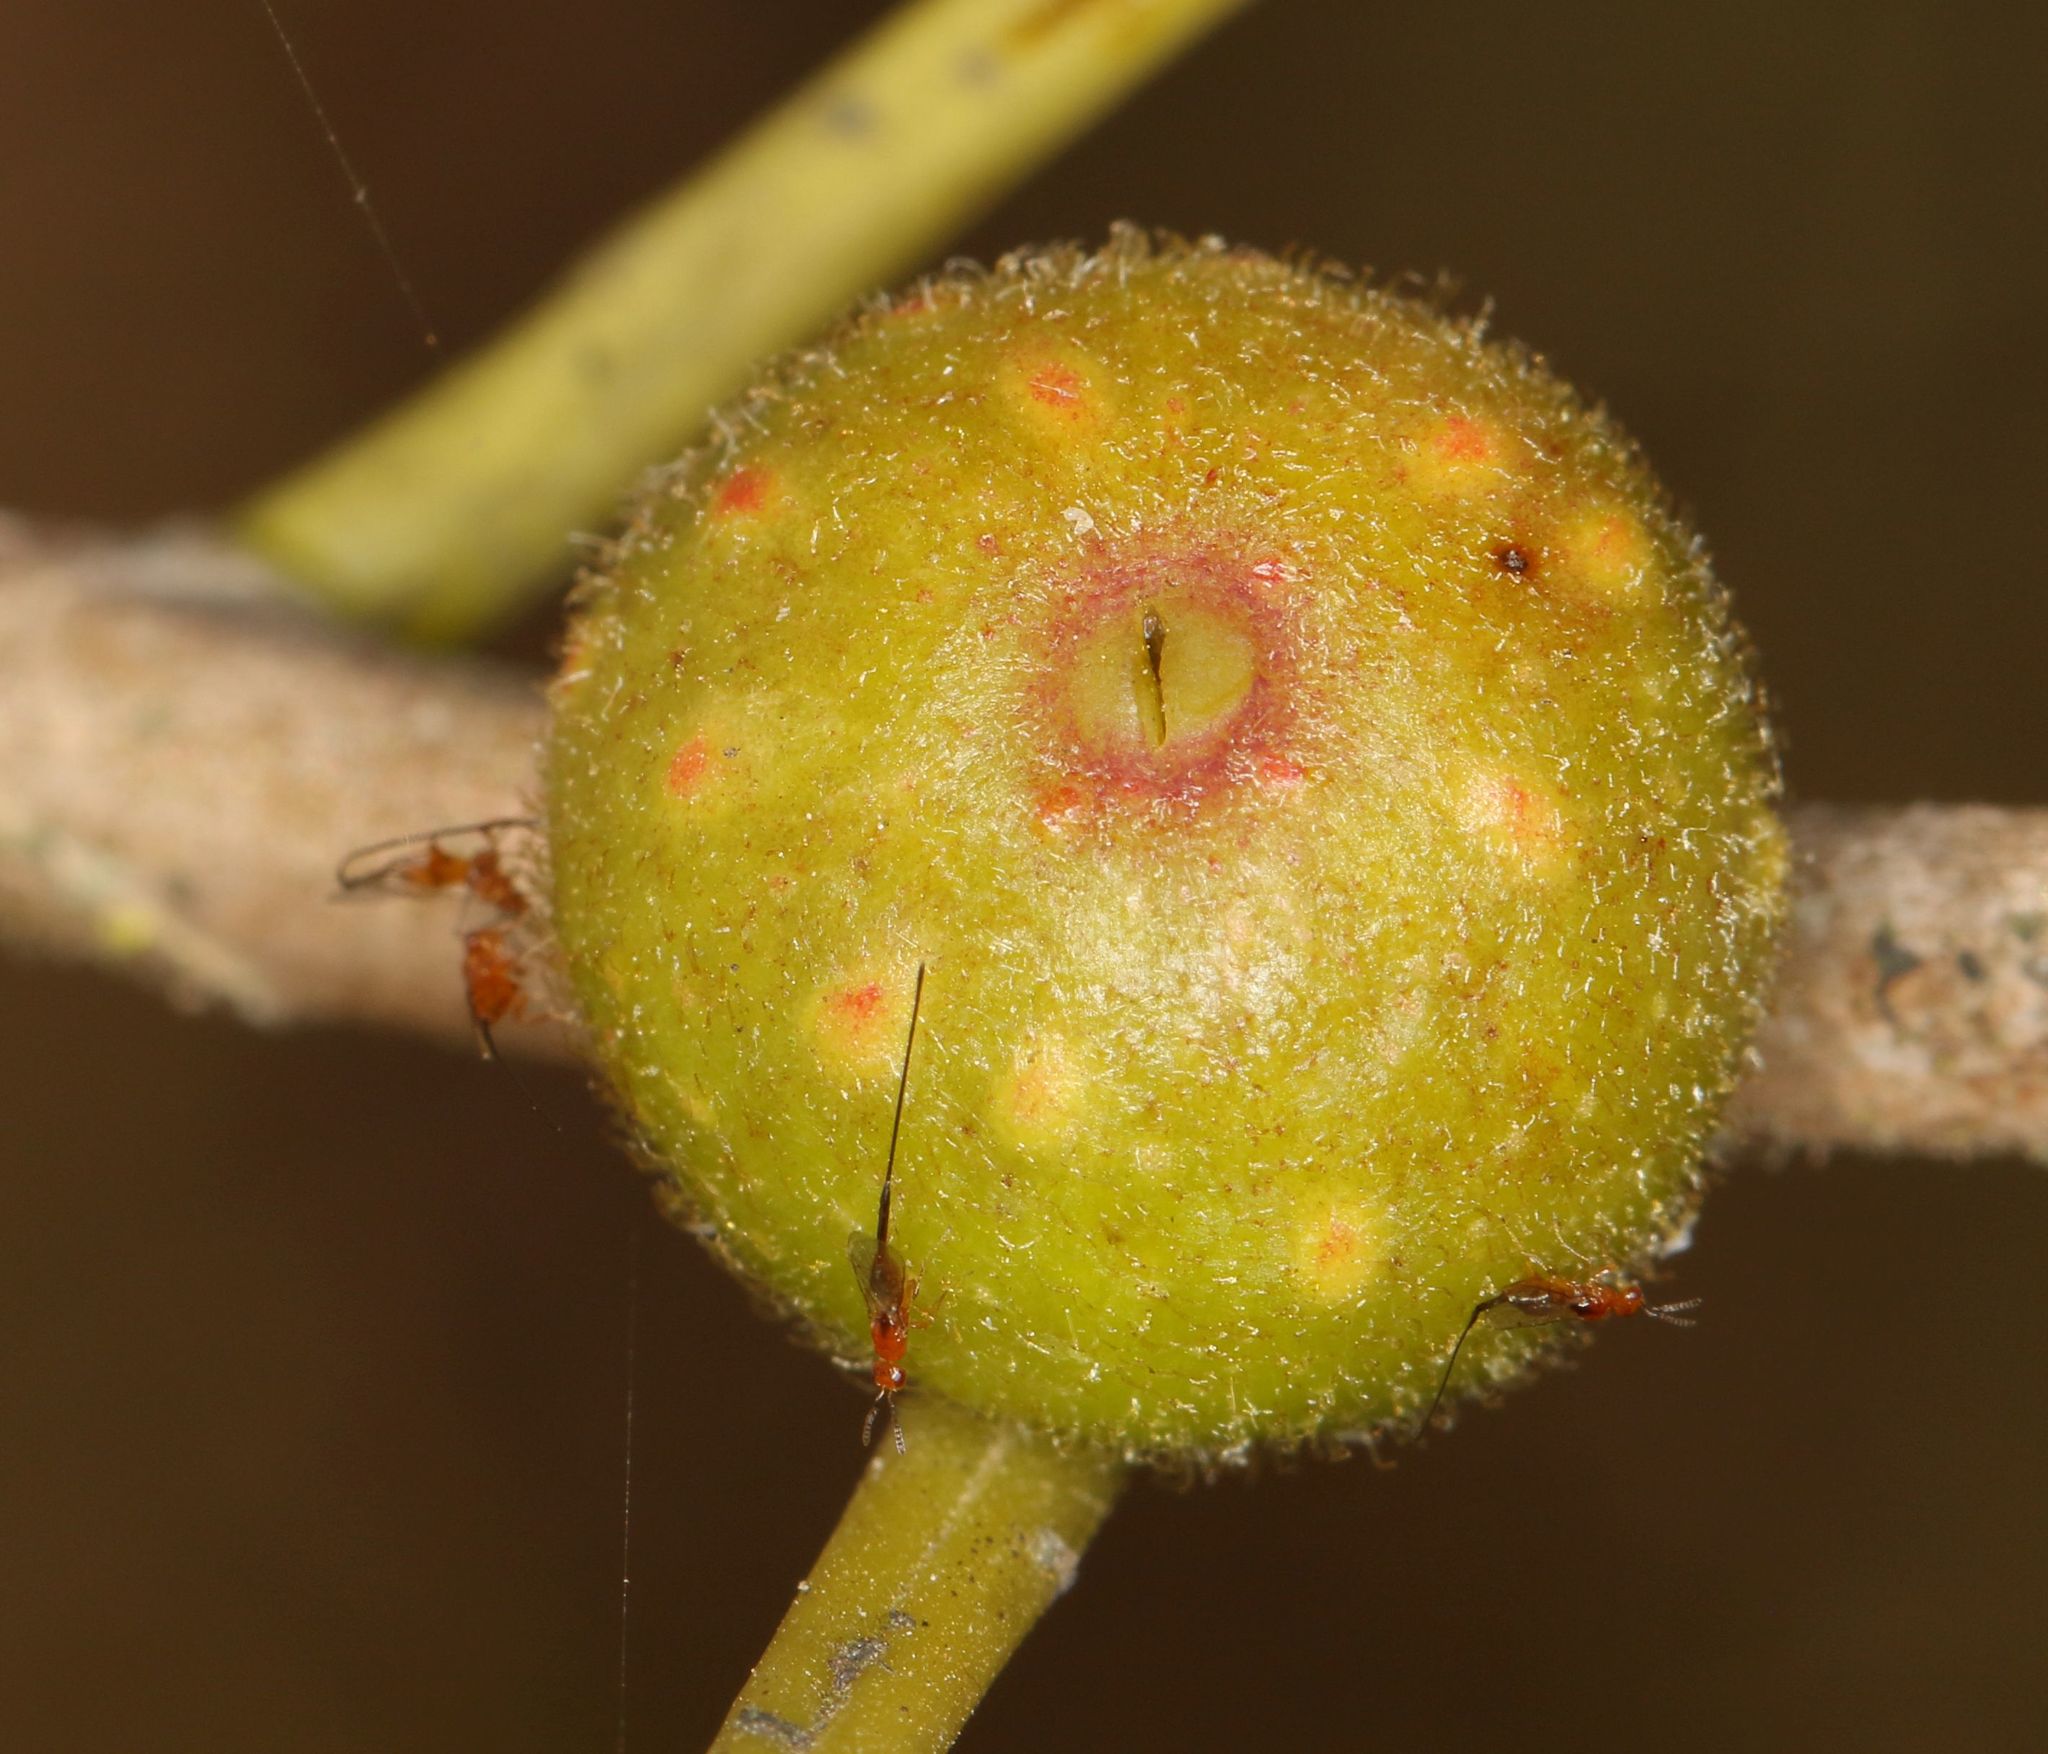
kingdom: Plantae
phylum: Tracheophyta
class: Magnoliopsida
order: Rosales
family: Moraceae
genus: Ficus
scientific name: Ficus thonningii
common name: Fig
